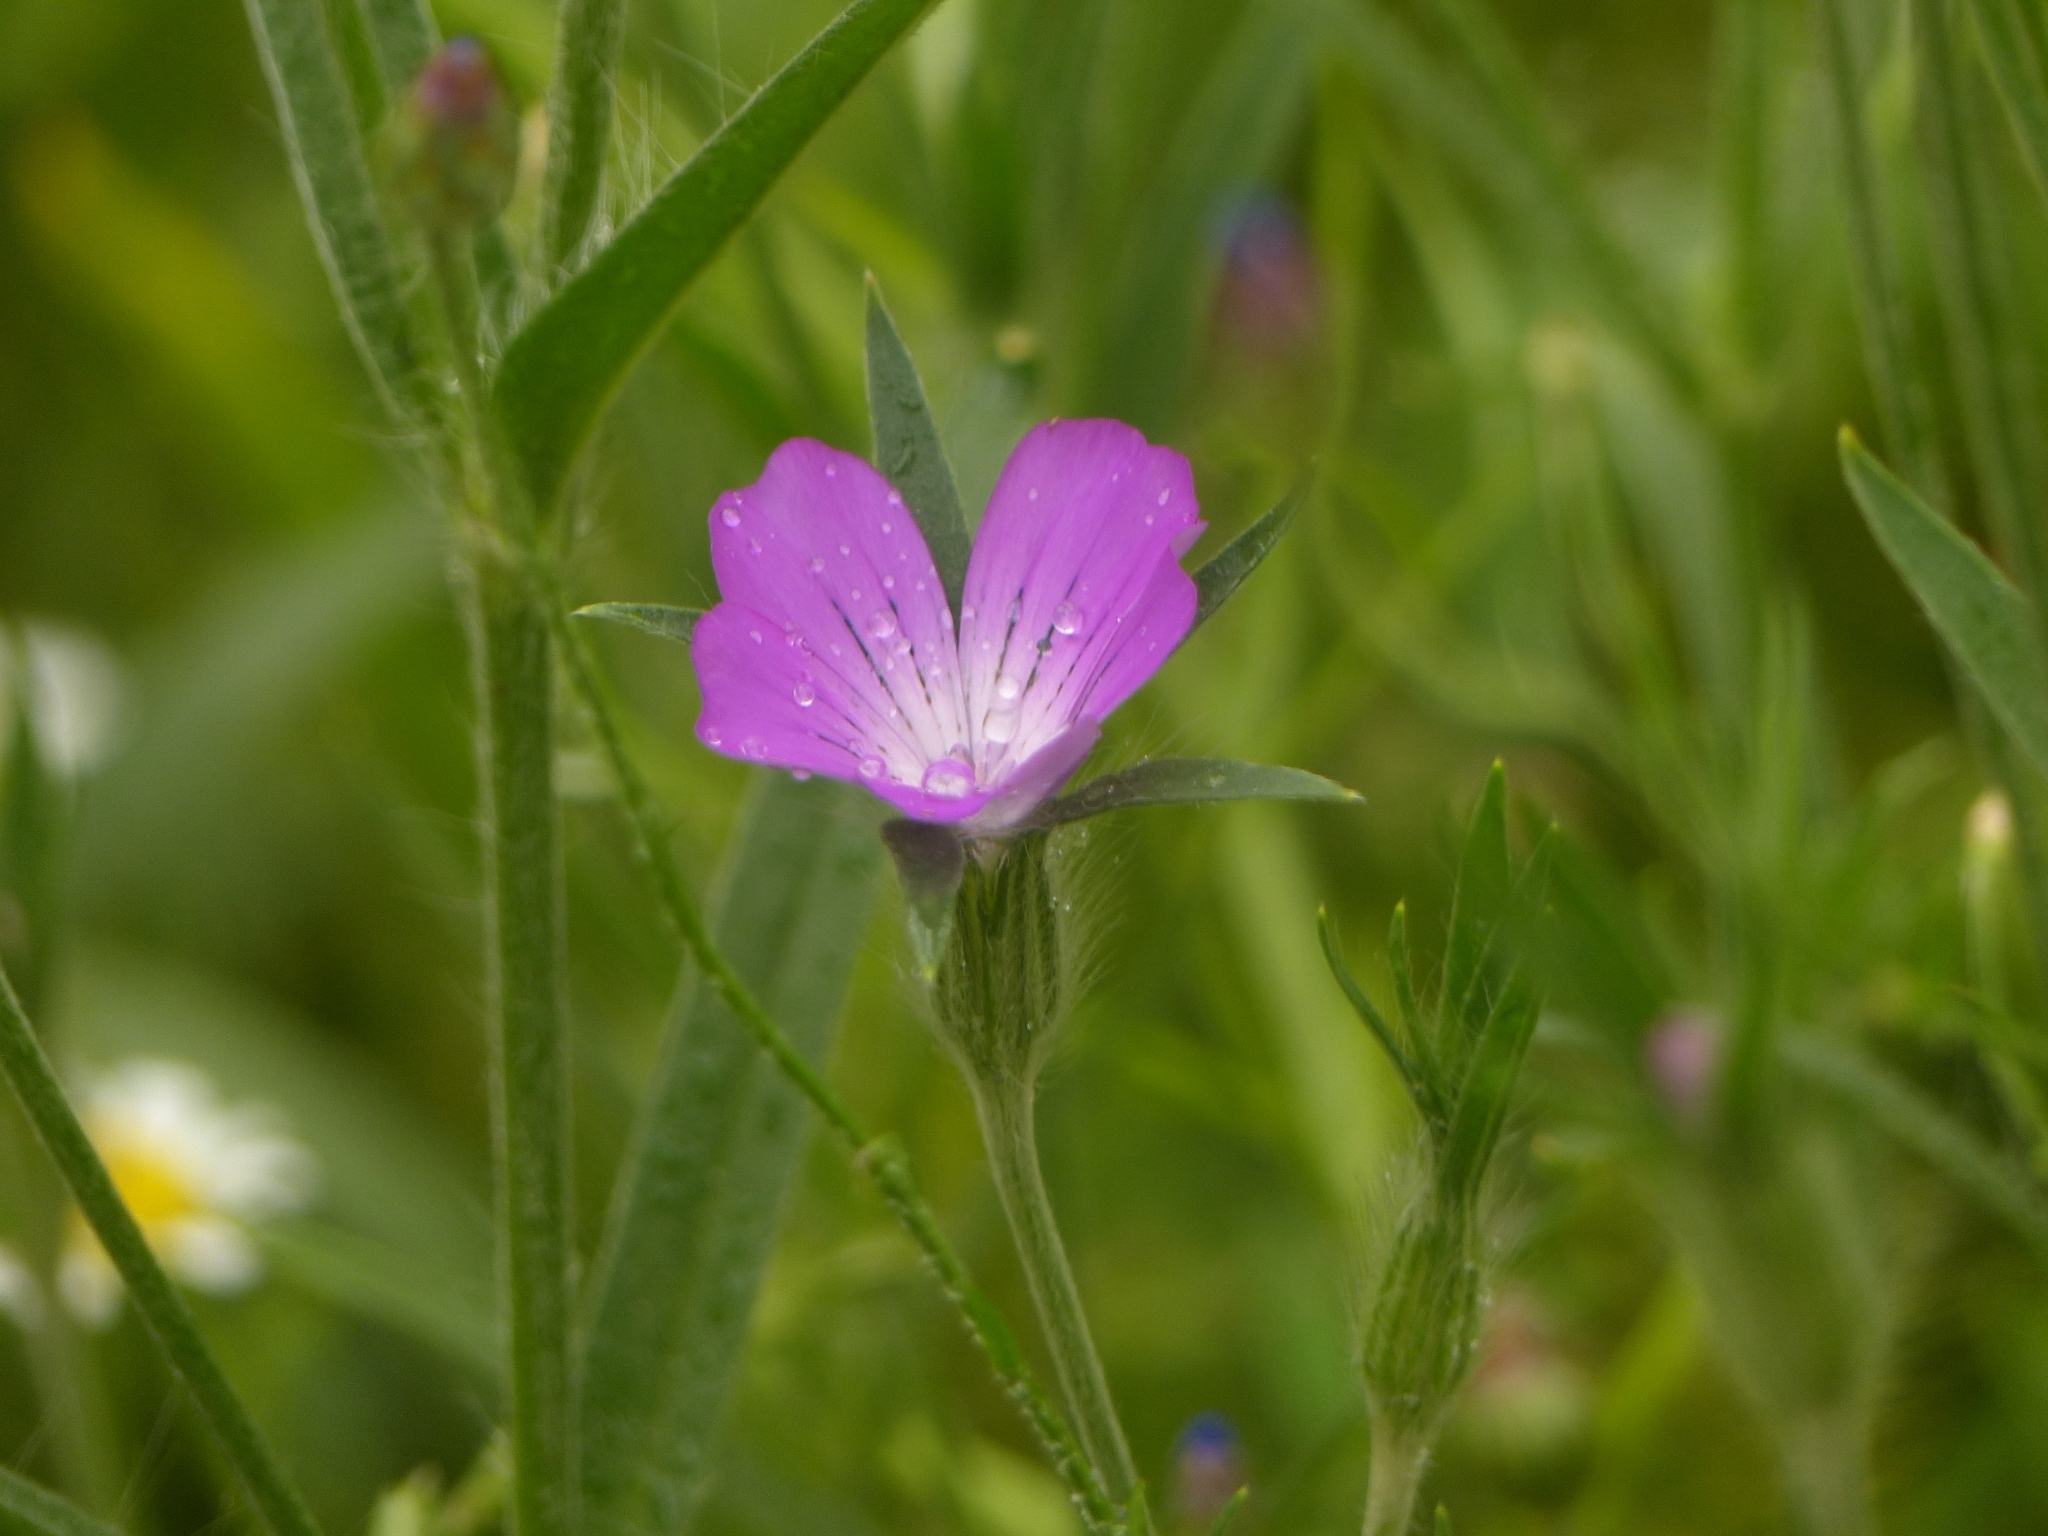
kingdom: Plantae
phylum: Tracheophyta
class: Magnoliopsida
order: Caryophyllales
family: Caryophyllaceae
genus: Agrostemma
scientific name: Agrostemma githago
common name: Common corncockle
